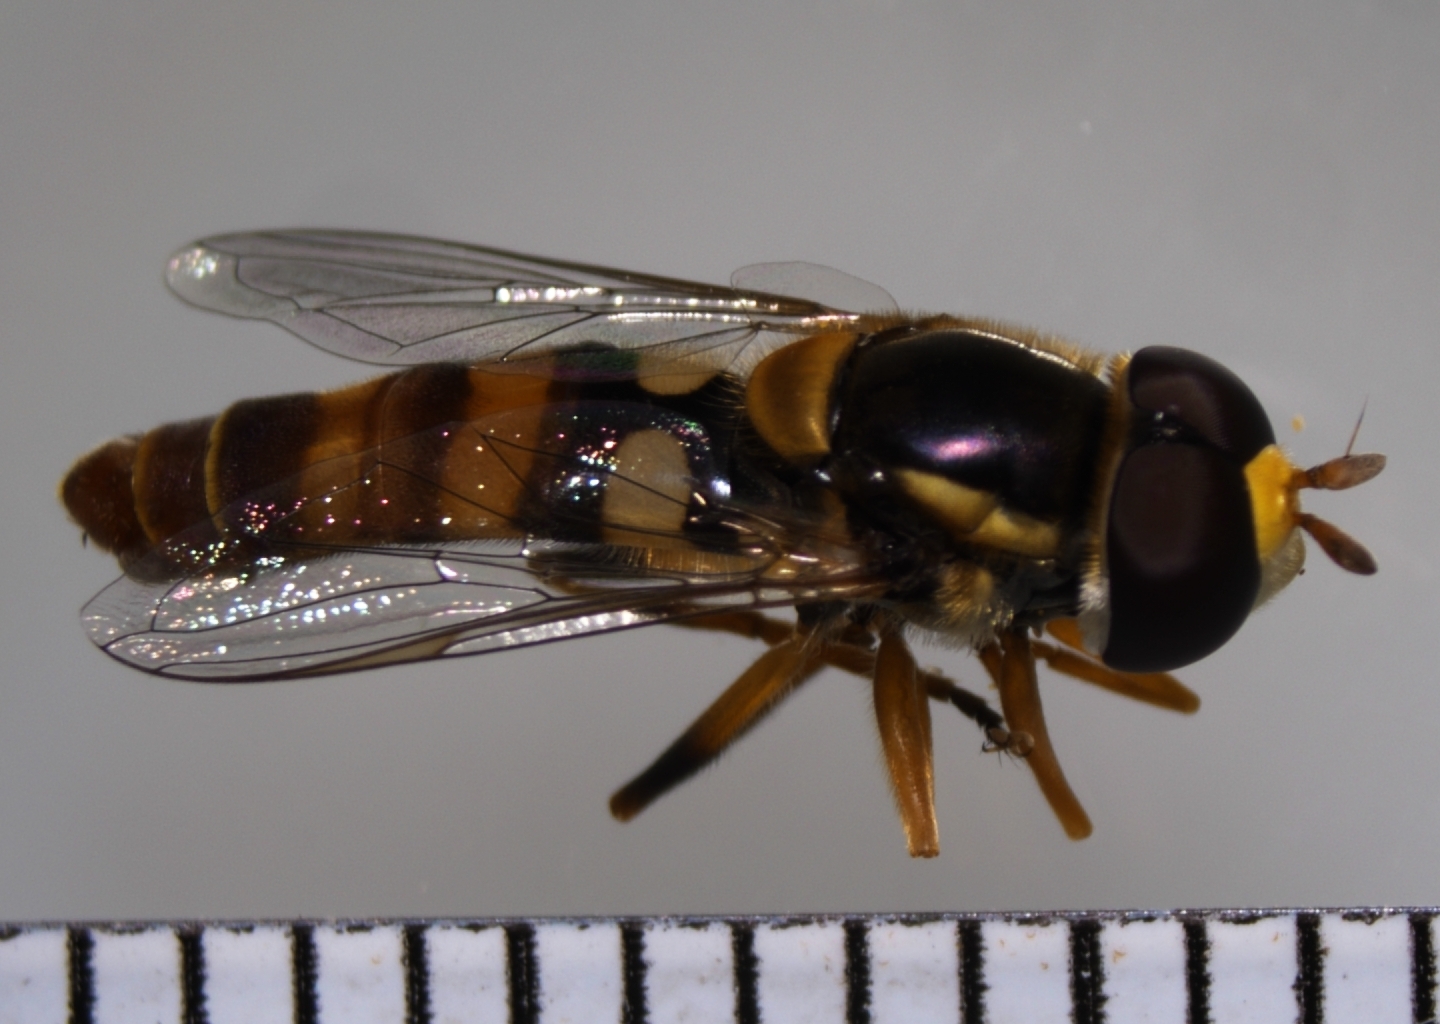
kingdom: Animalia
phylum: Arthropoda
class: Insecta
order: Diptera
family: Syrphidae
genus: Ischiodon
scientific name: Ischiodon scutellaris
